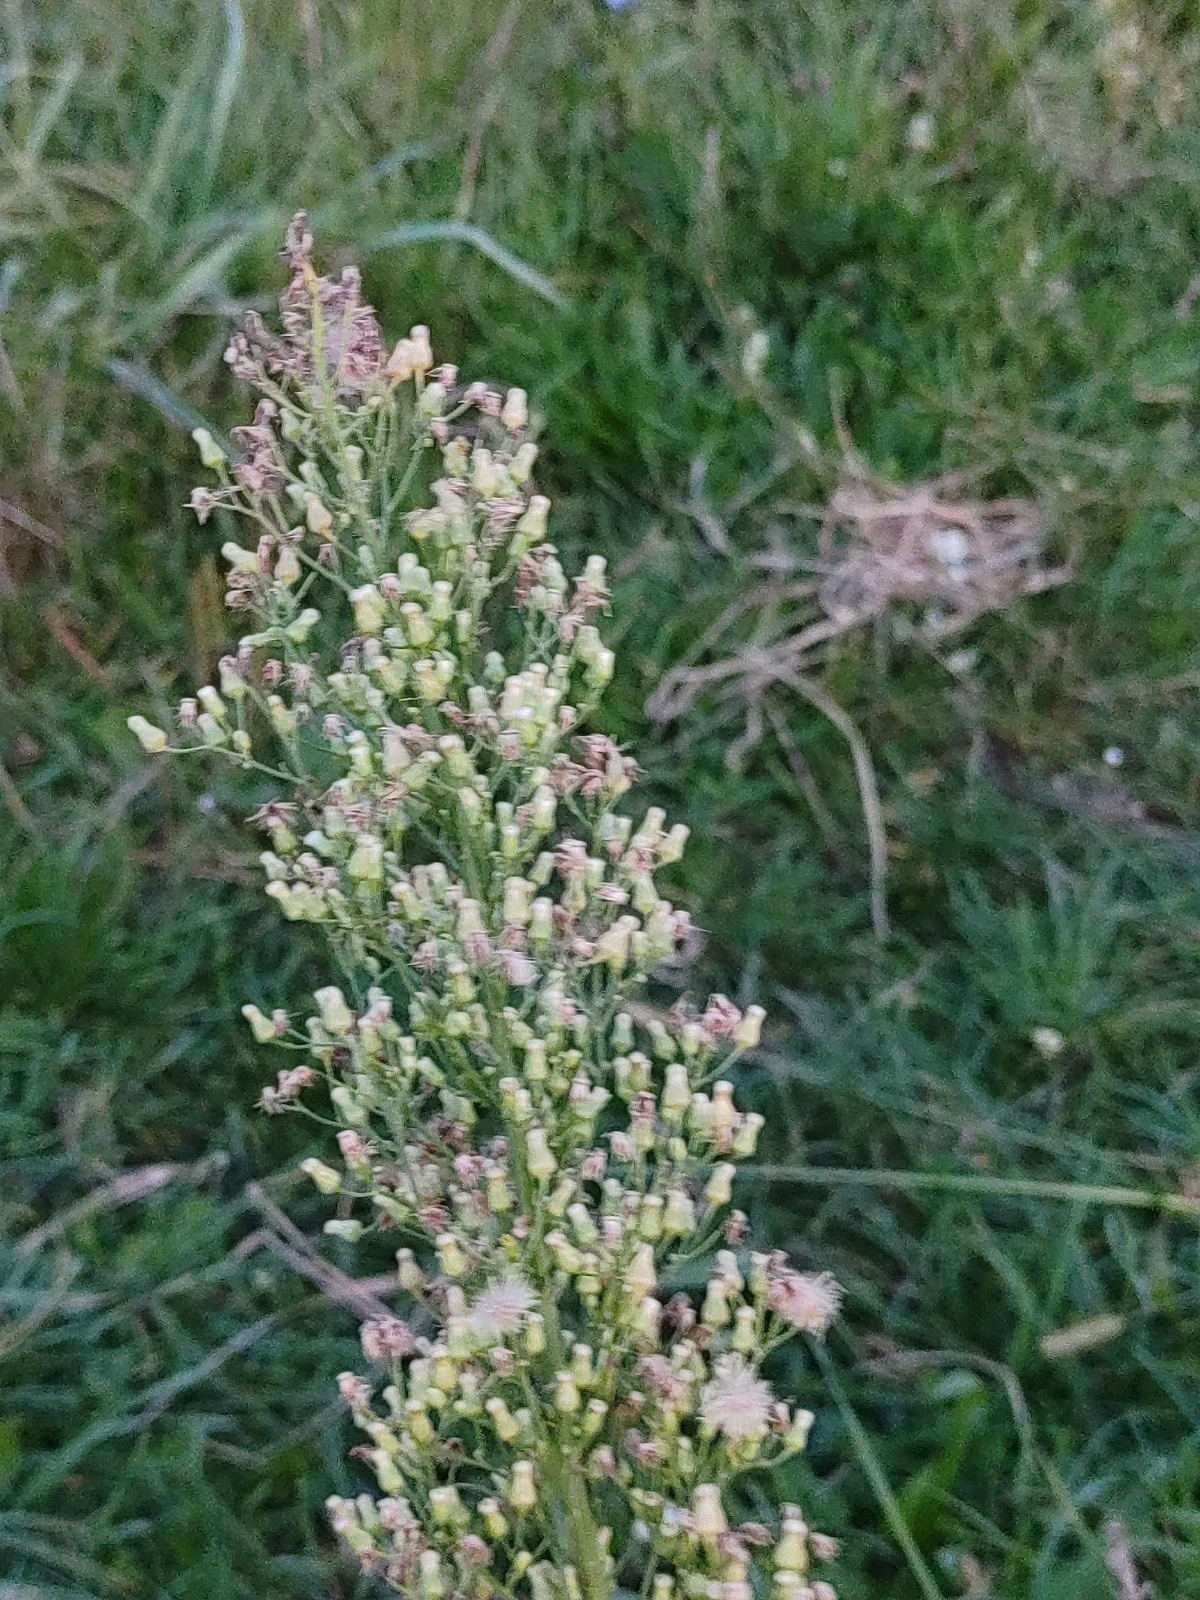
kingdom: Plantae
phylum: Tracheophyta
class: Magnoliopsida
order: Asterales
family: Asteraceae
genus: Erigeron
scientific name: Erigeron canadensis
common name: Canadian fleabane
